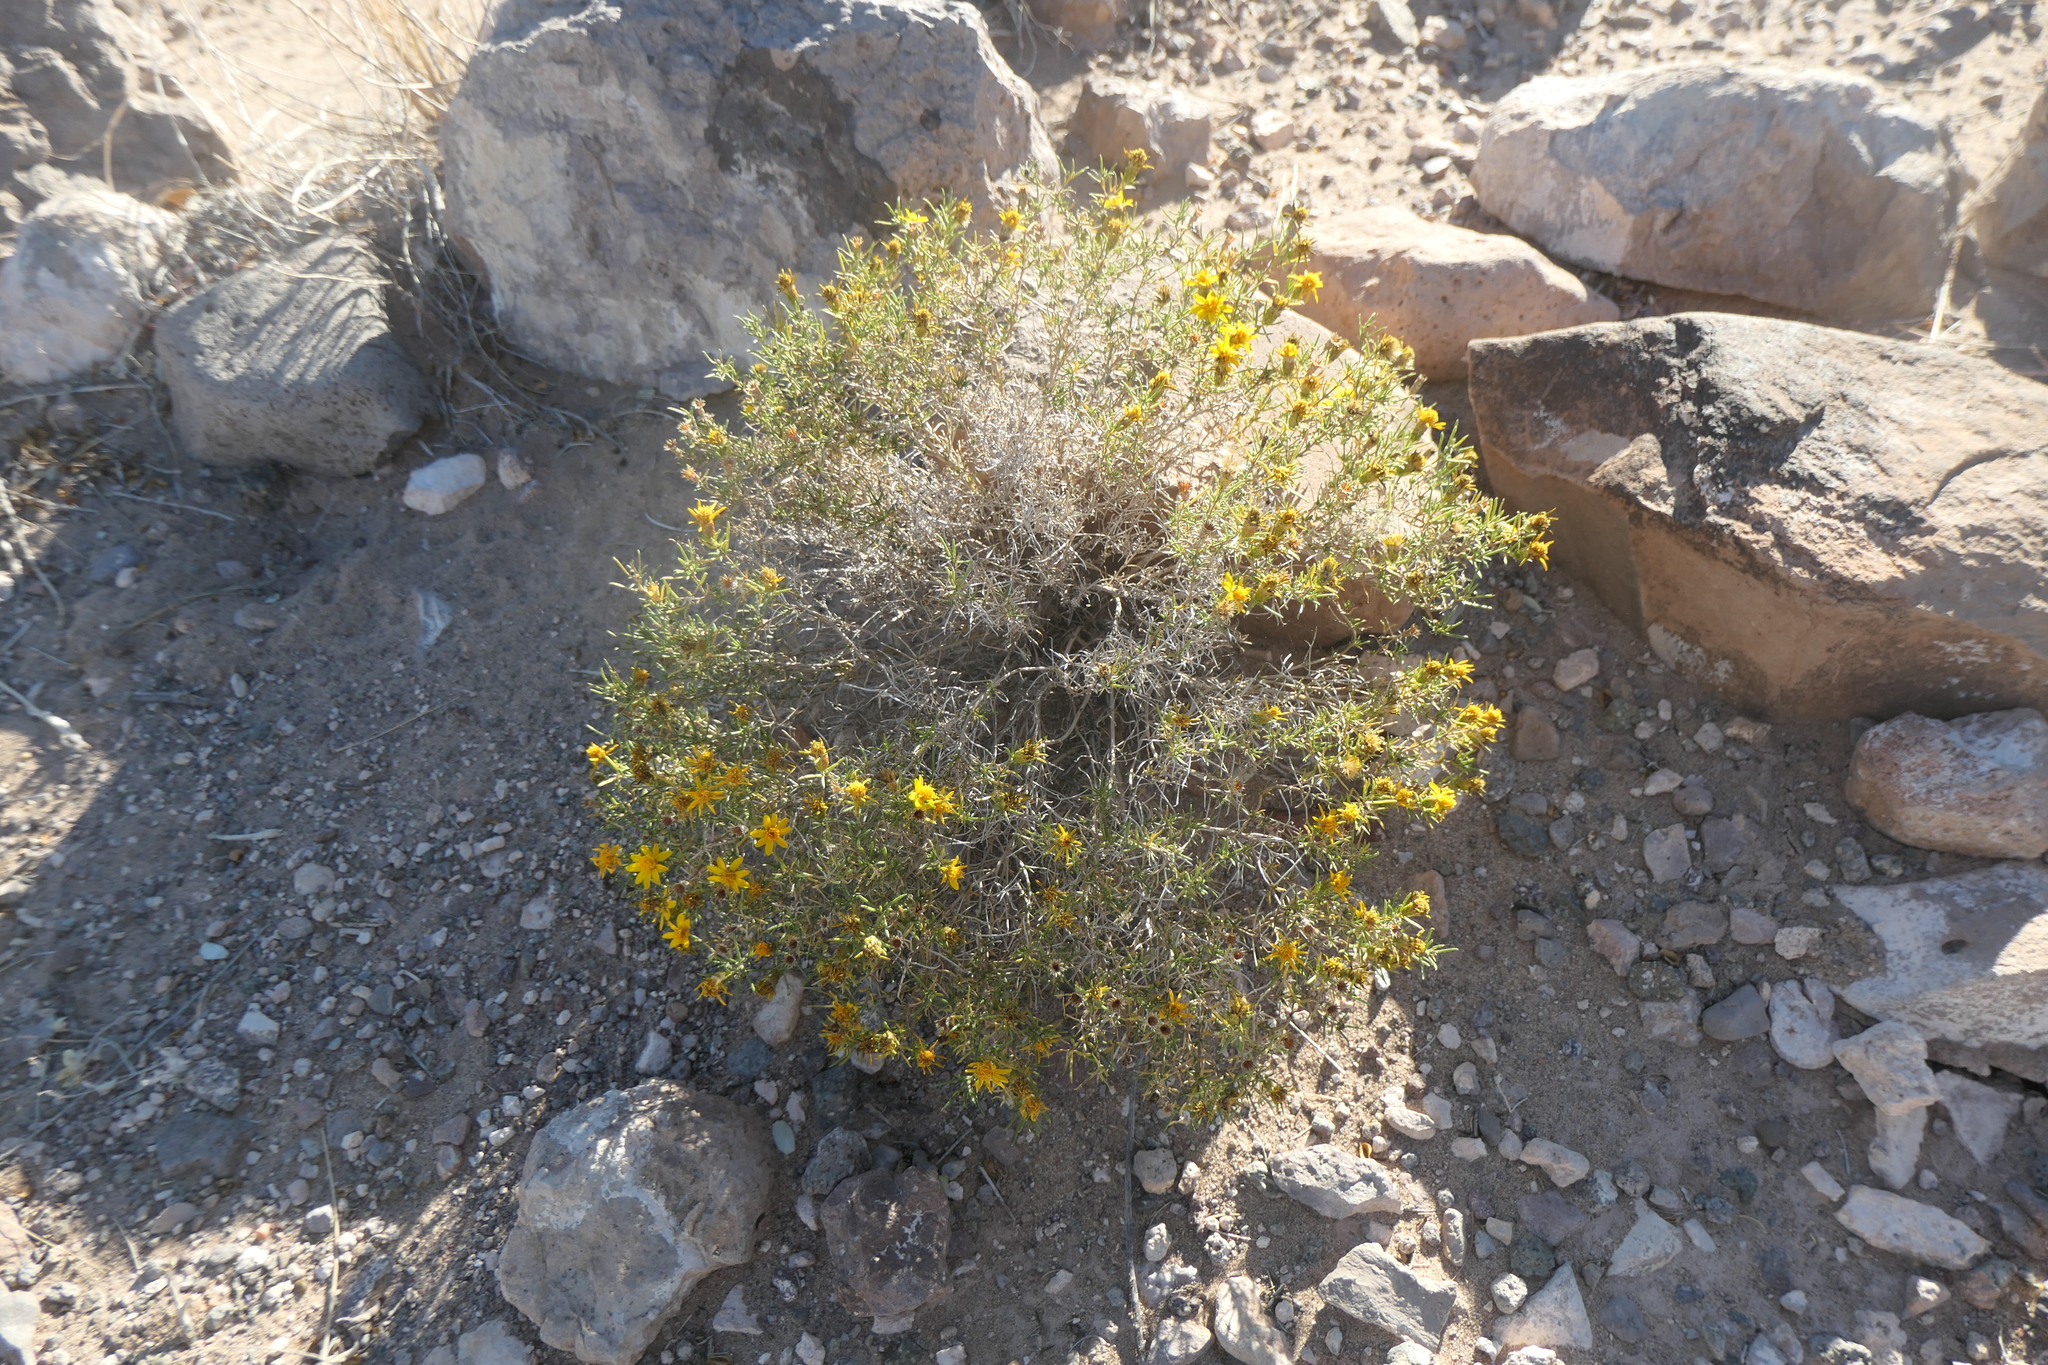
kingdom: Plantae
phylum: Tracheophyta
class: Magnoliopsida
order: Asterales
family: Asteraceae
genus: Thymophylla
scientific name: Thymophylla acerosa
